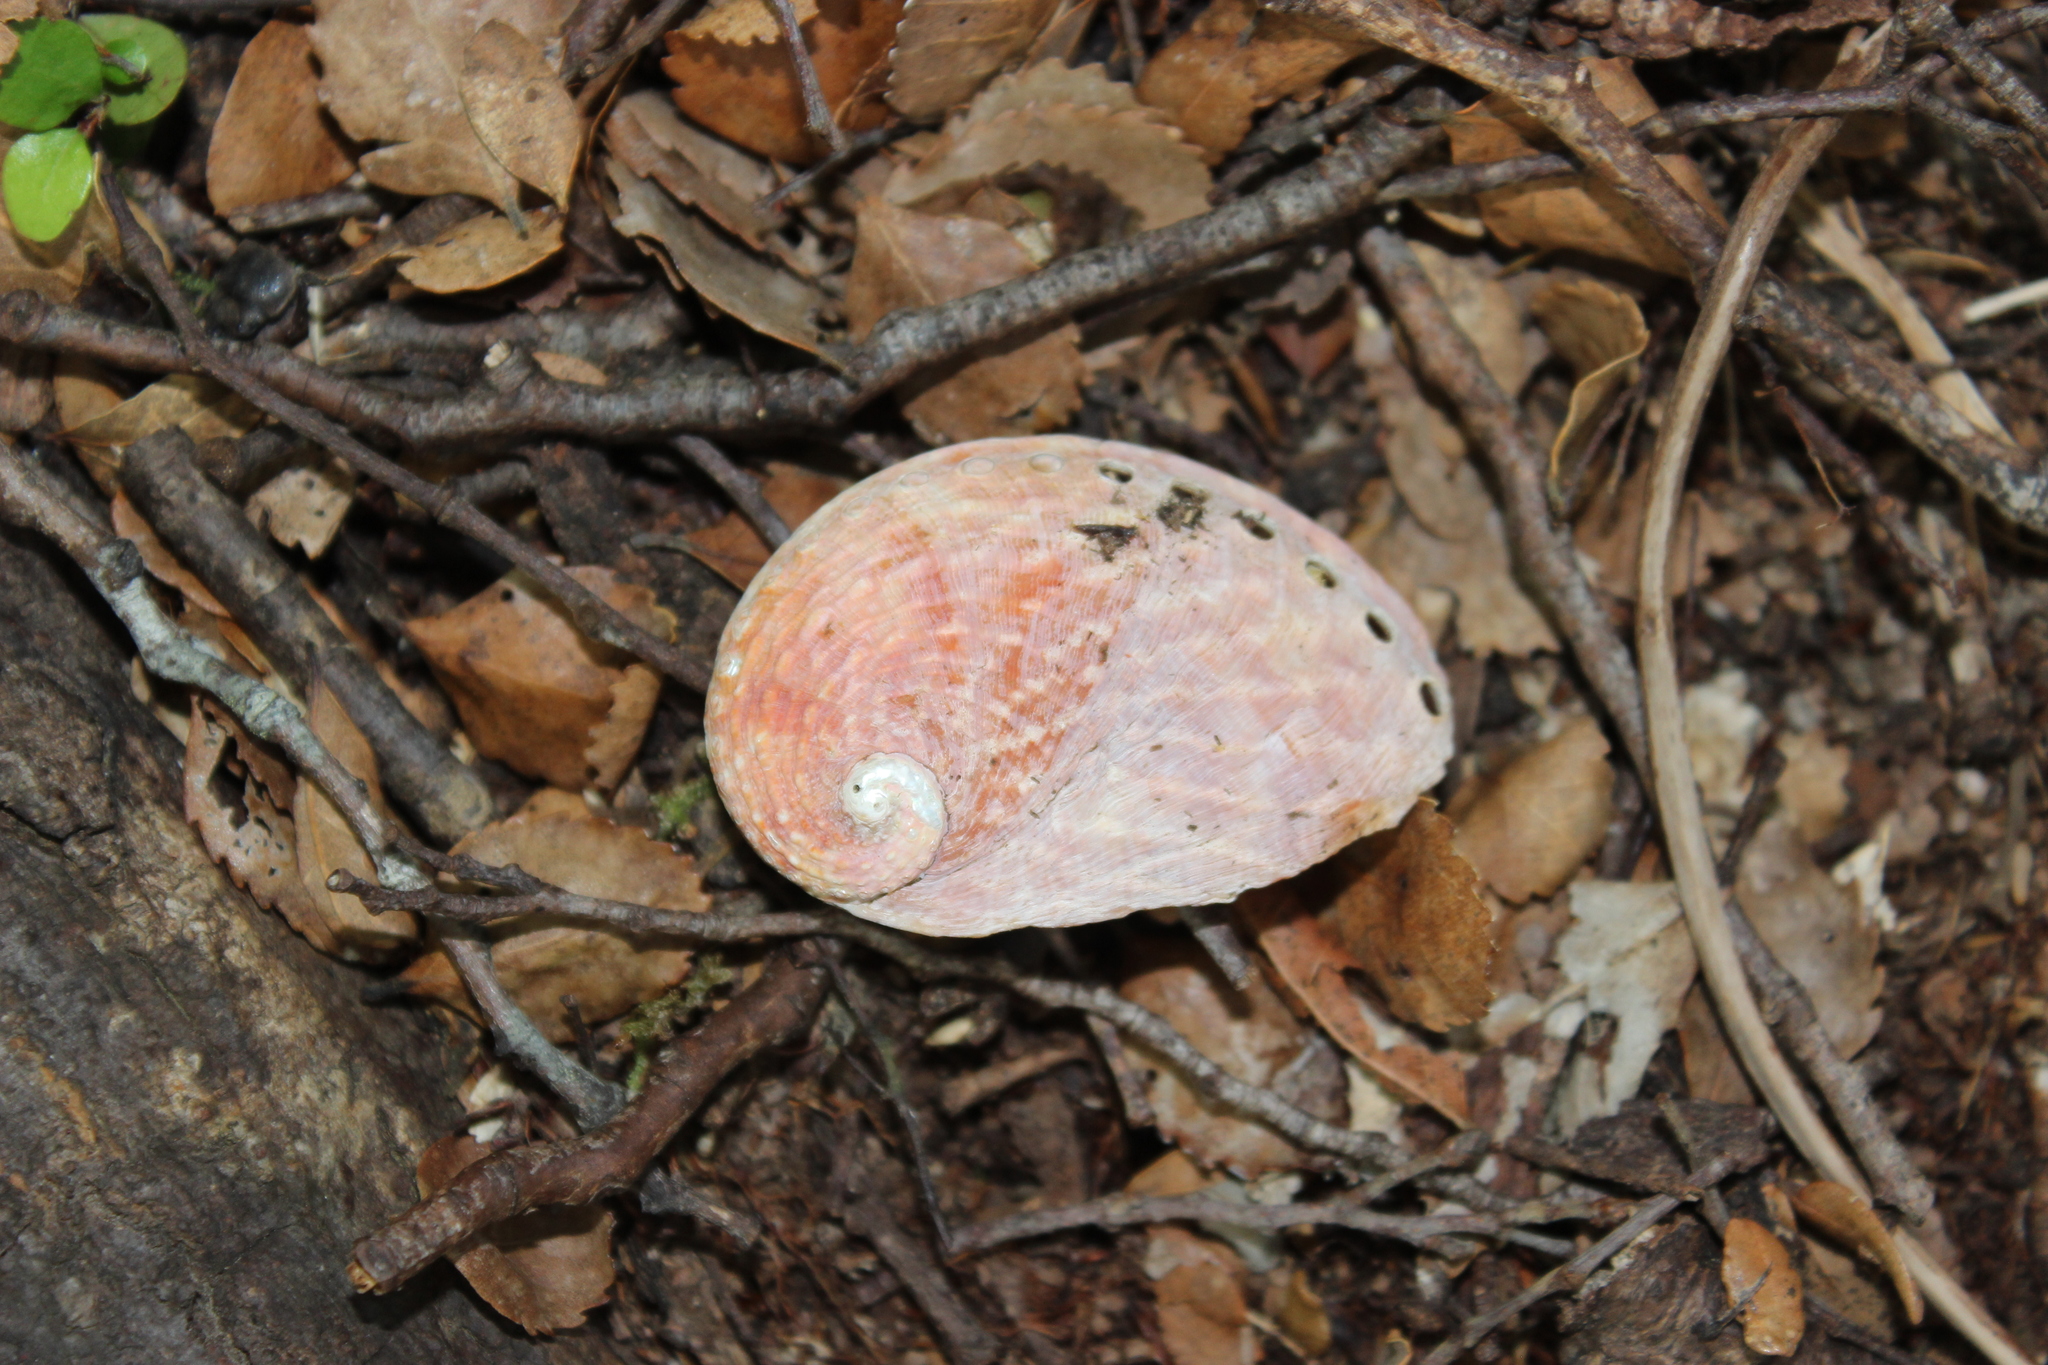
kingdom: Animalia
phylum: Mollusca
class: Gastropoda
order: Lepetellida
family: Haliotidae
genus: Haliotis
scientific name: Haliotis australis
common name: Silver abalone
